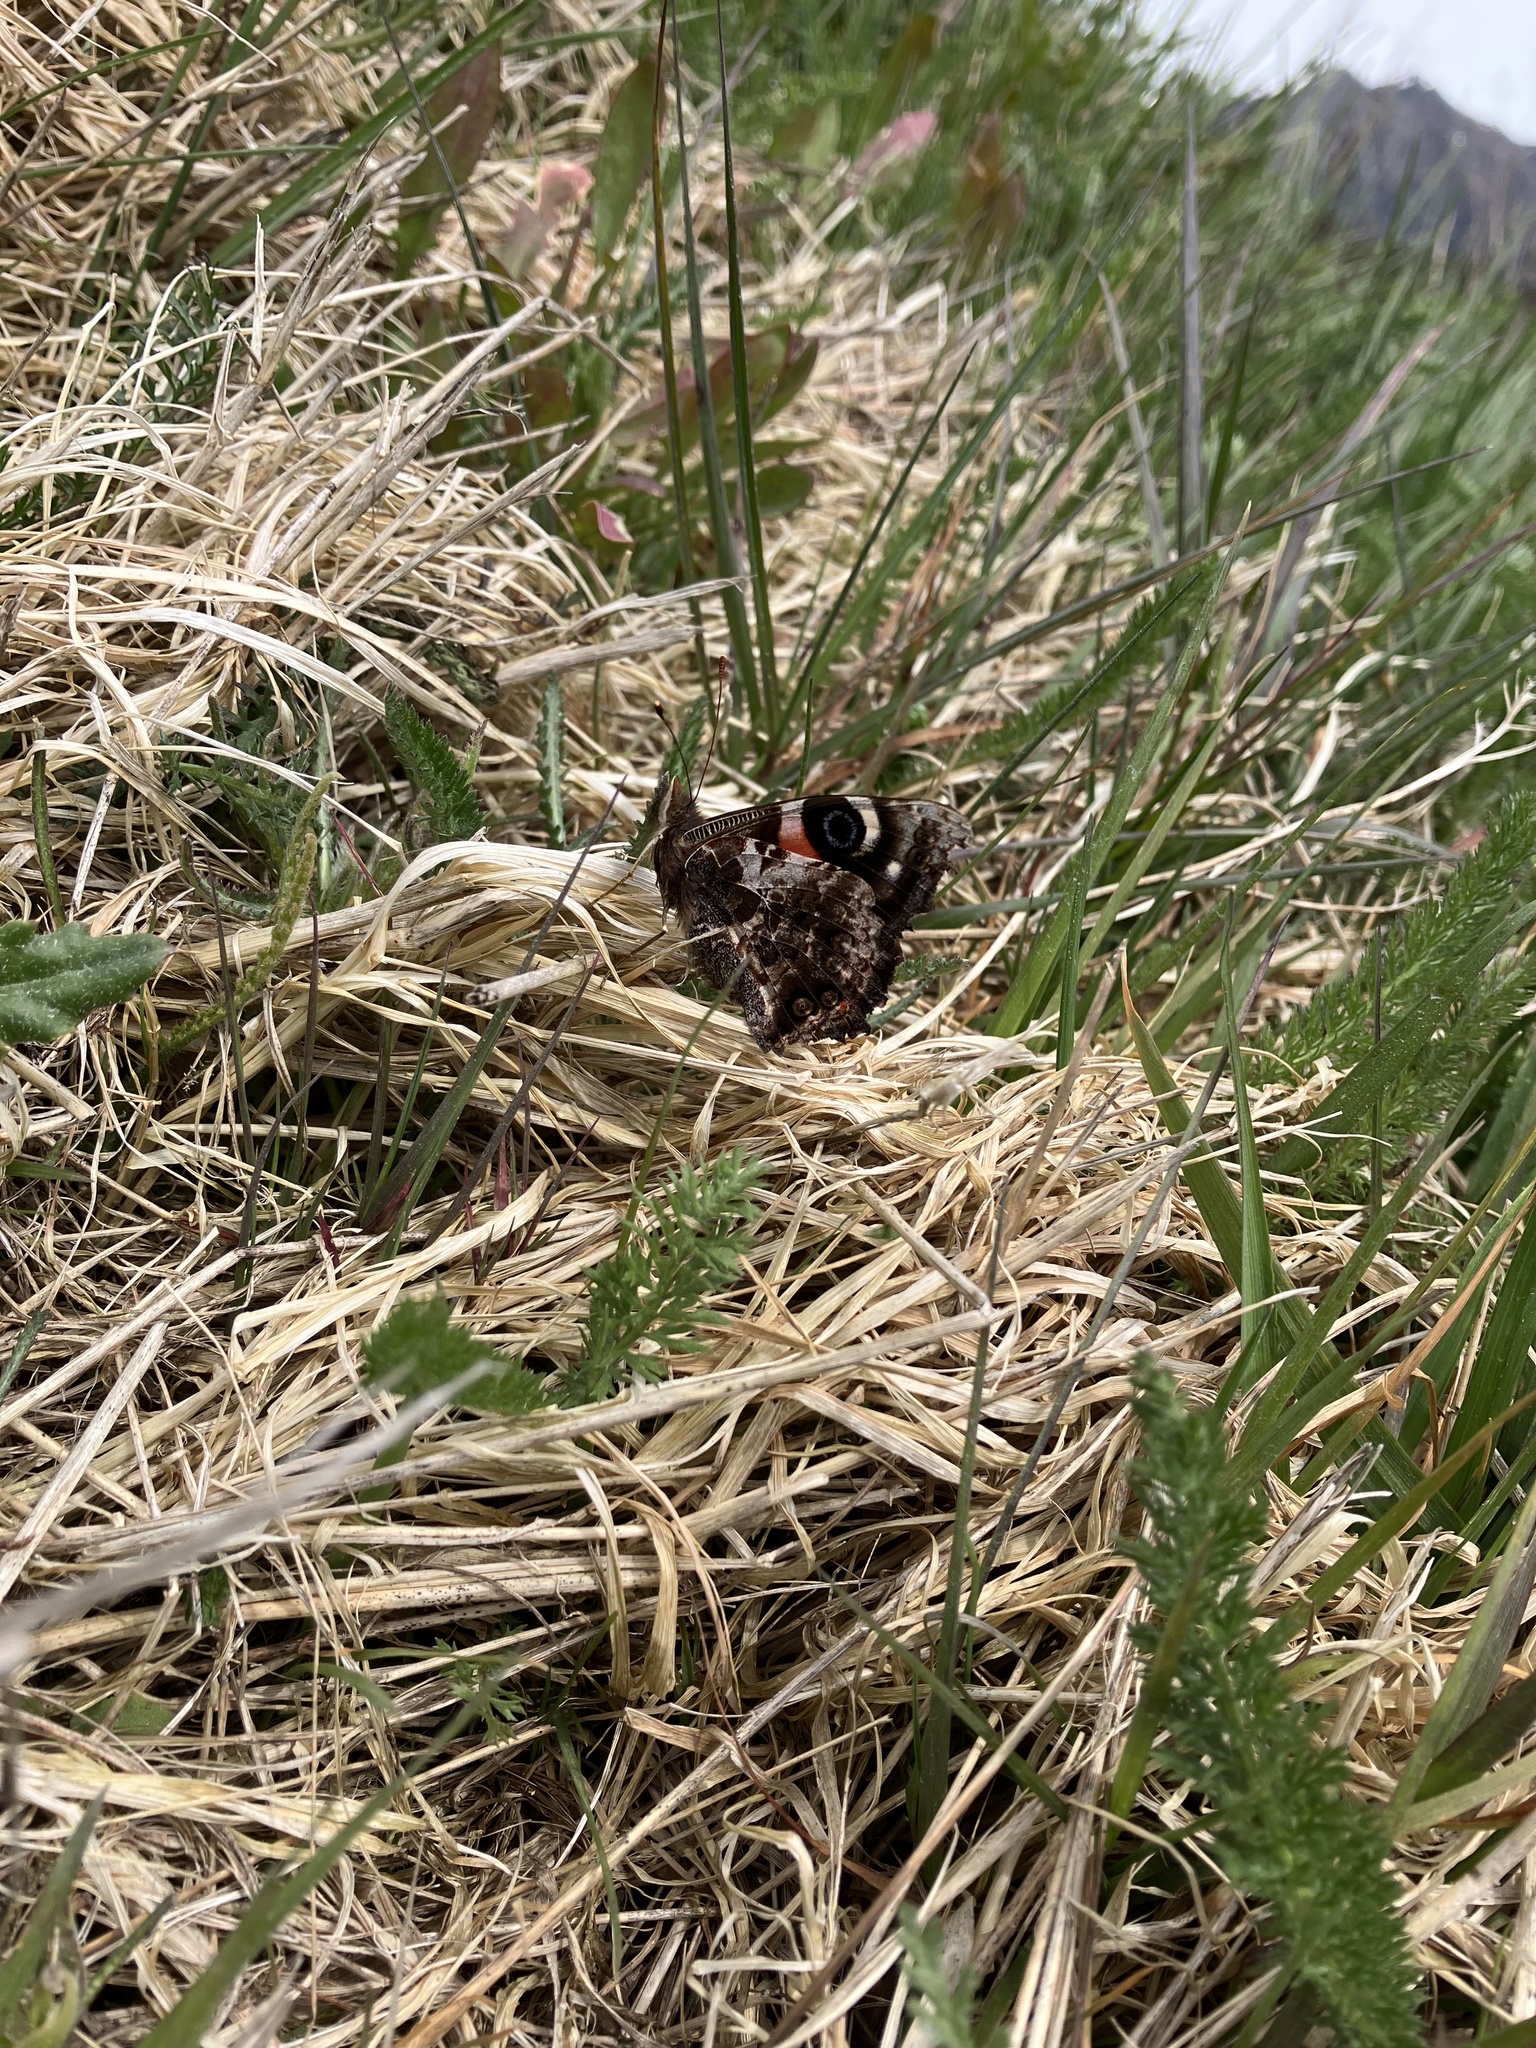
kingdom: Animalia
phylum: Arthropoda
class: Insecta
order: Lepidoptera
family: Nymphalidae
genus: Vanessa
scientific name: Vanessa gonerilla
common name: New zealand red admiral
